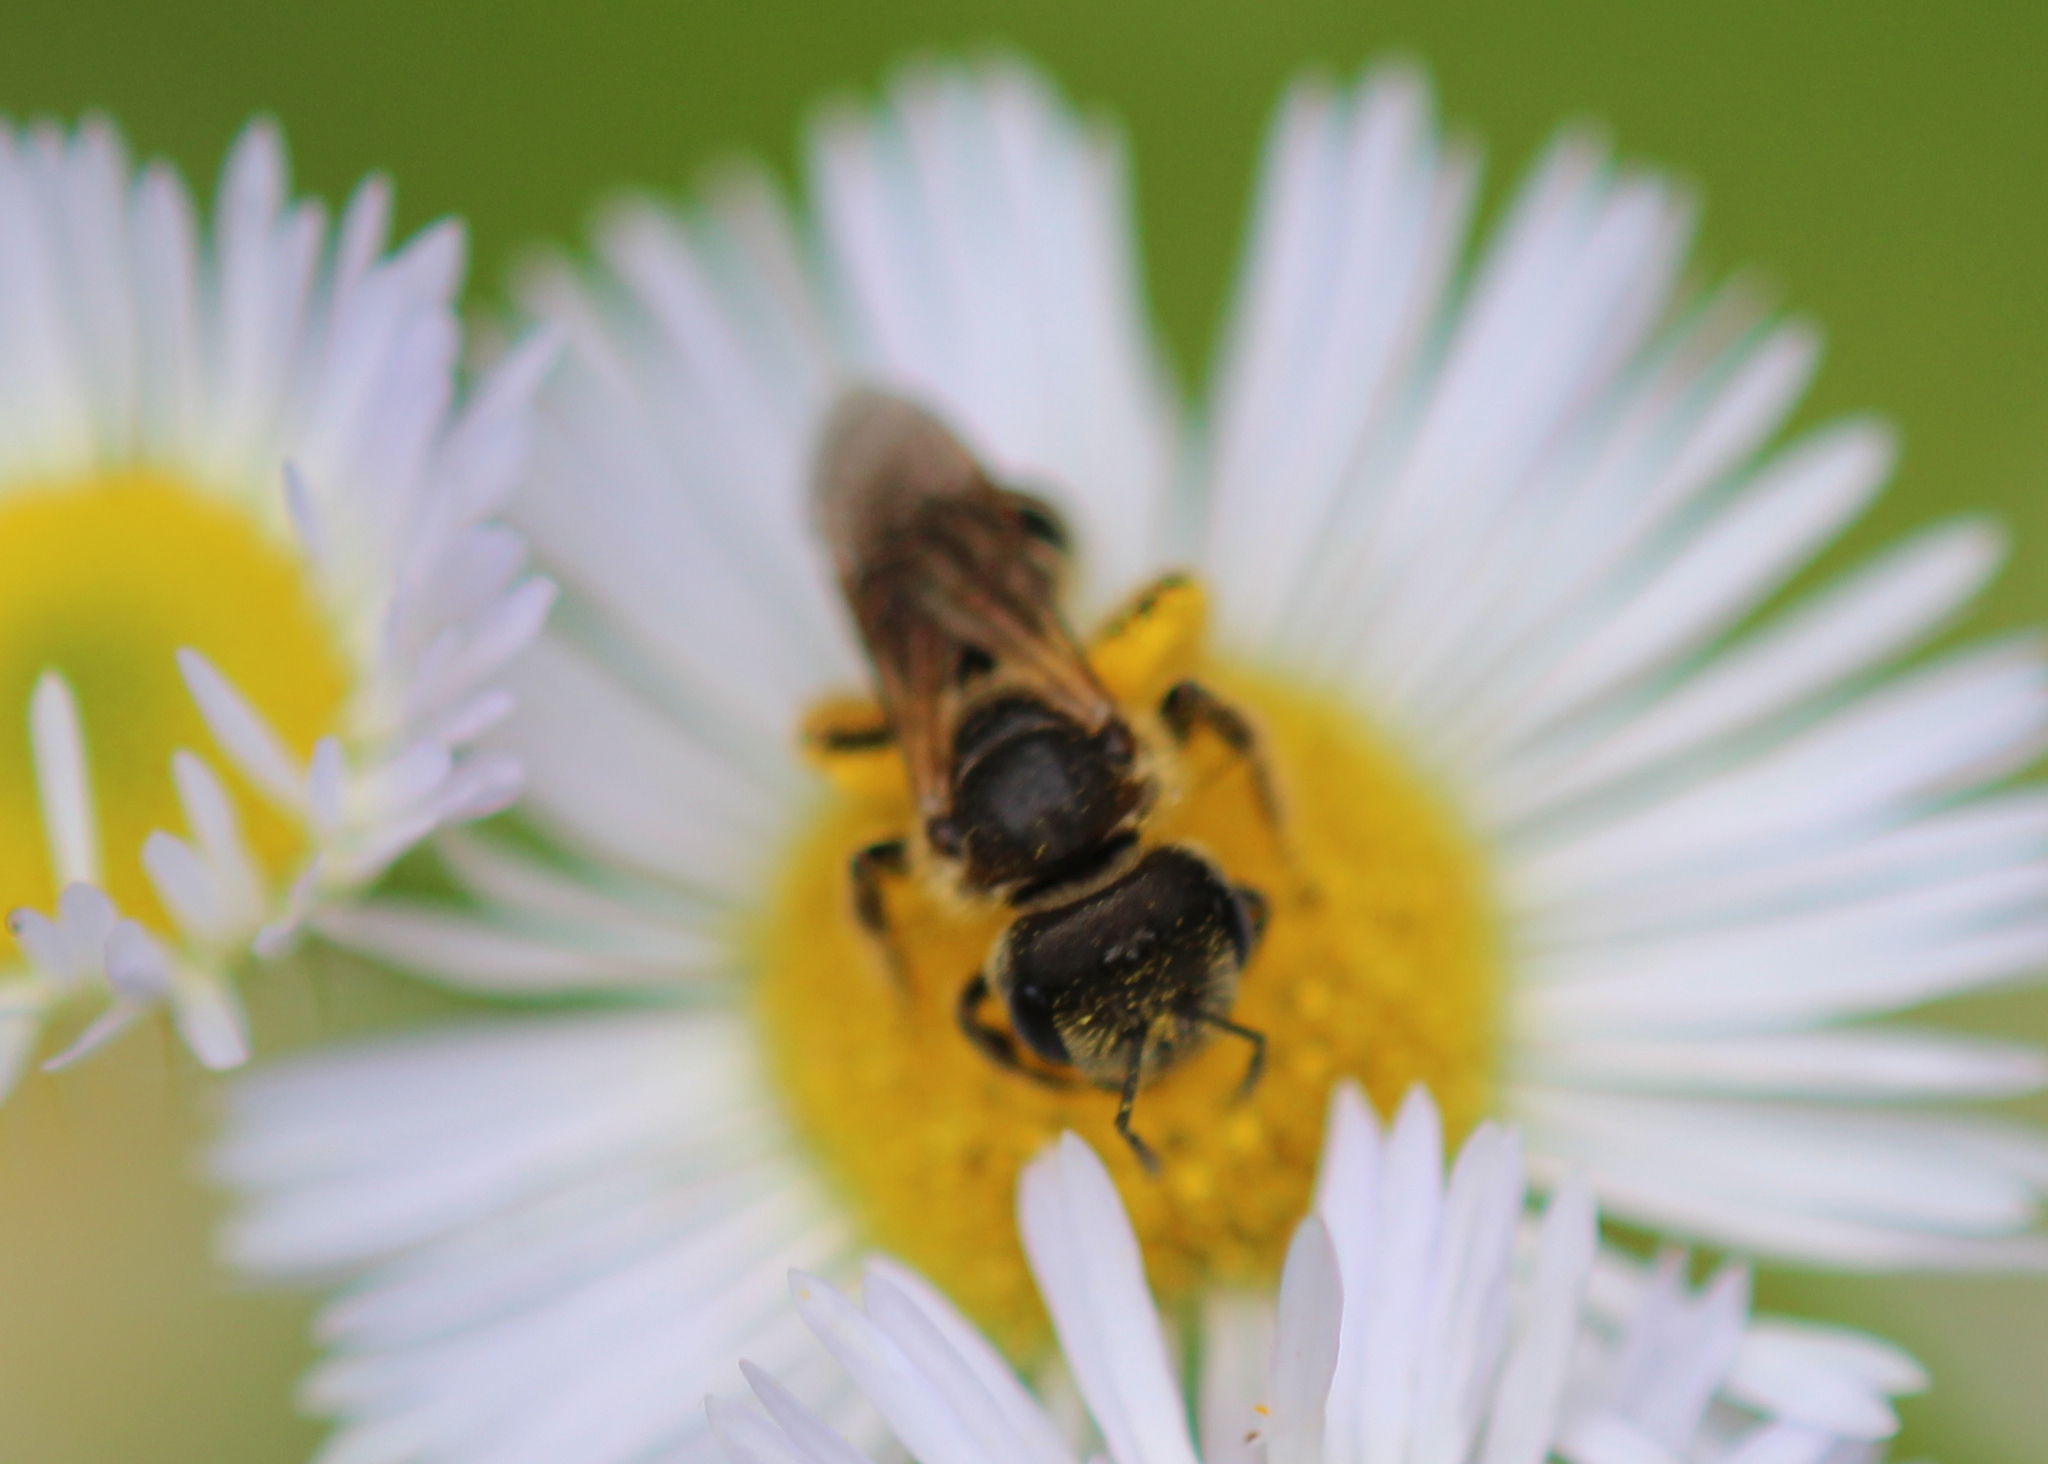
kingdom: Animalia
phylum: Arthropoda
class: Insecta
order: Hymenoptera
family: Halictidae
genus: Halictus
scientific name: Halictus ligatus
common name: Ligated furrow bee
